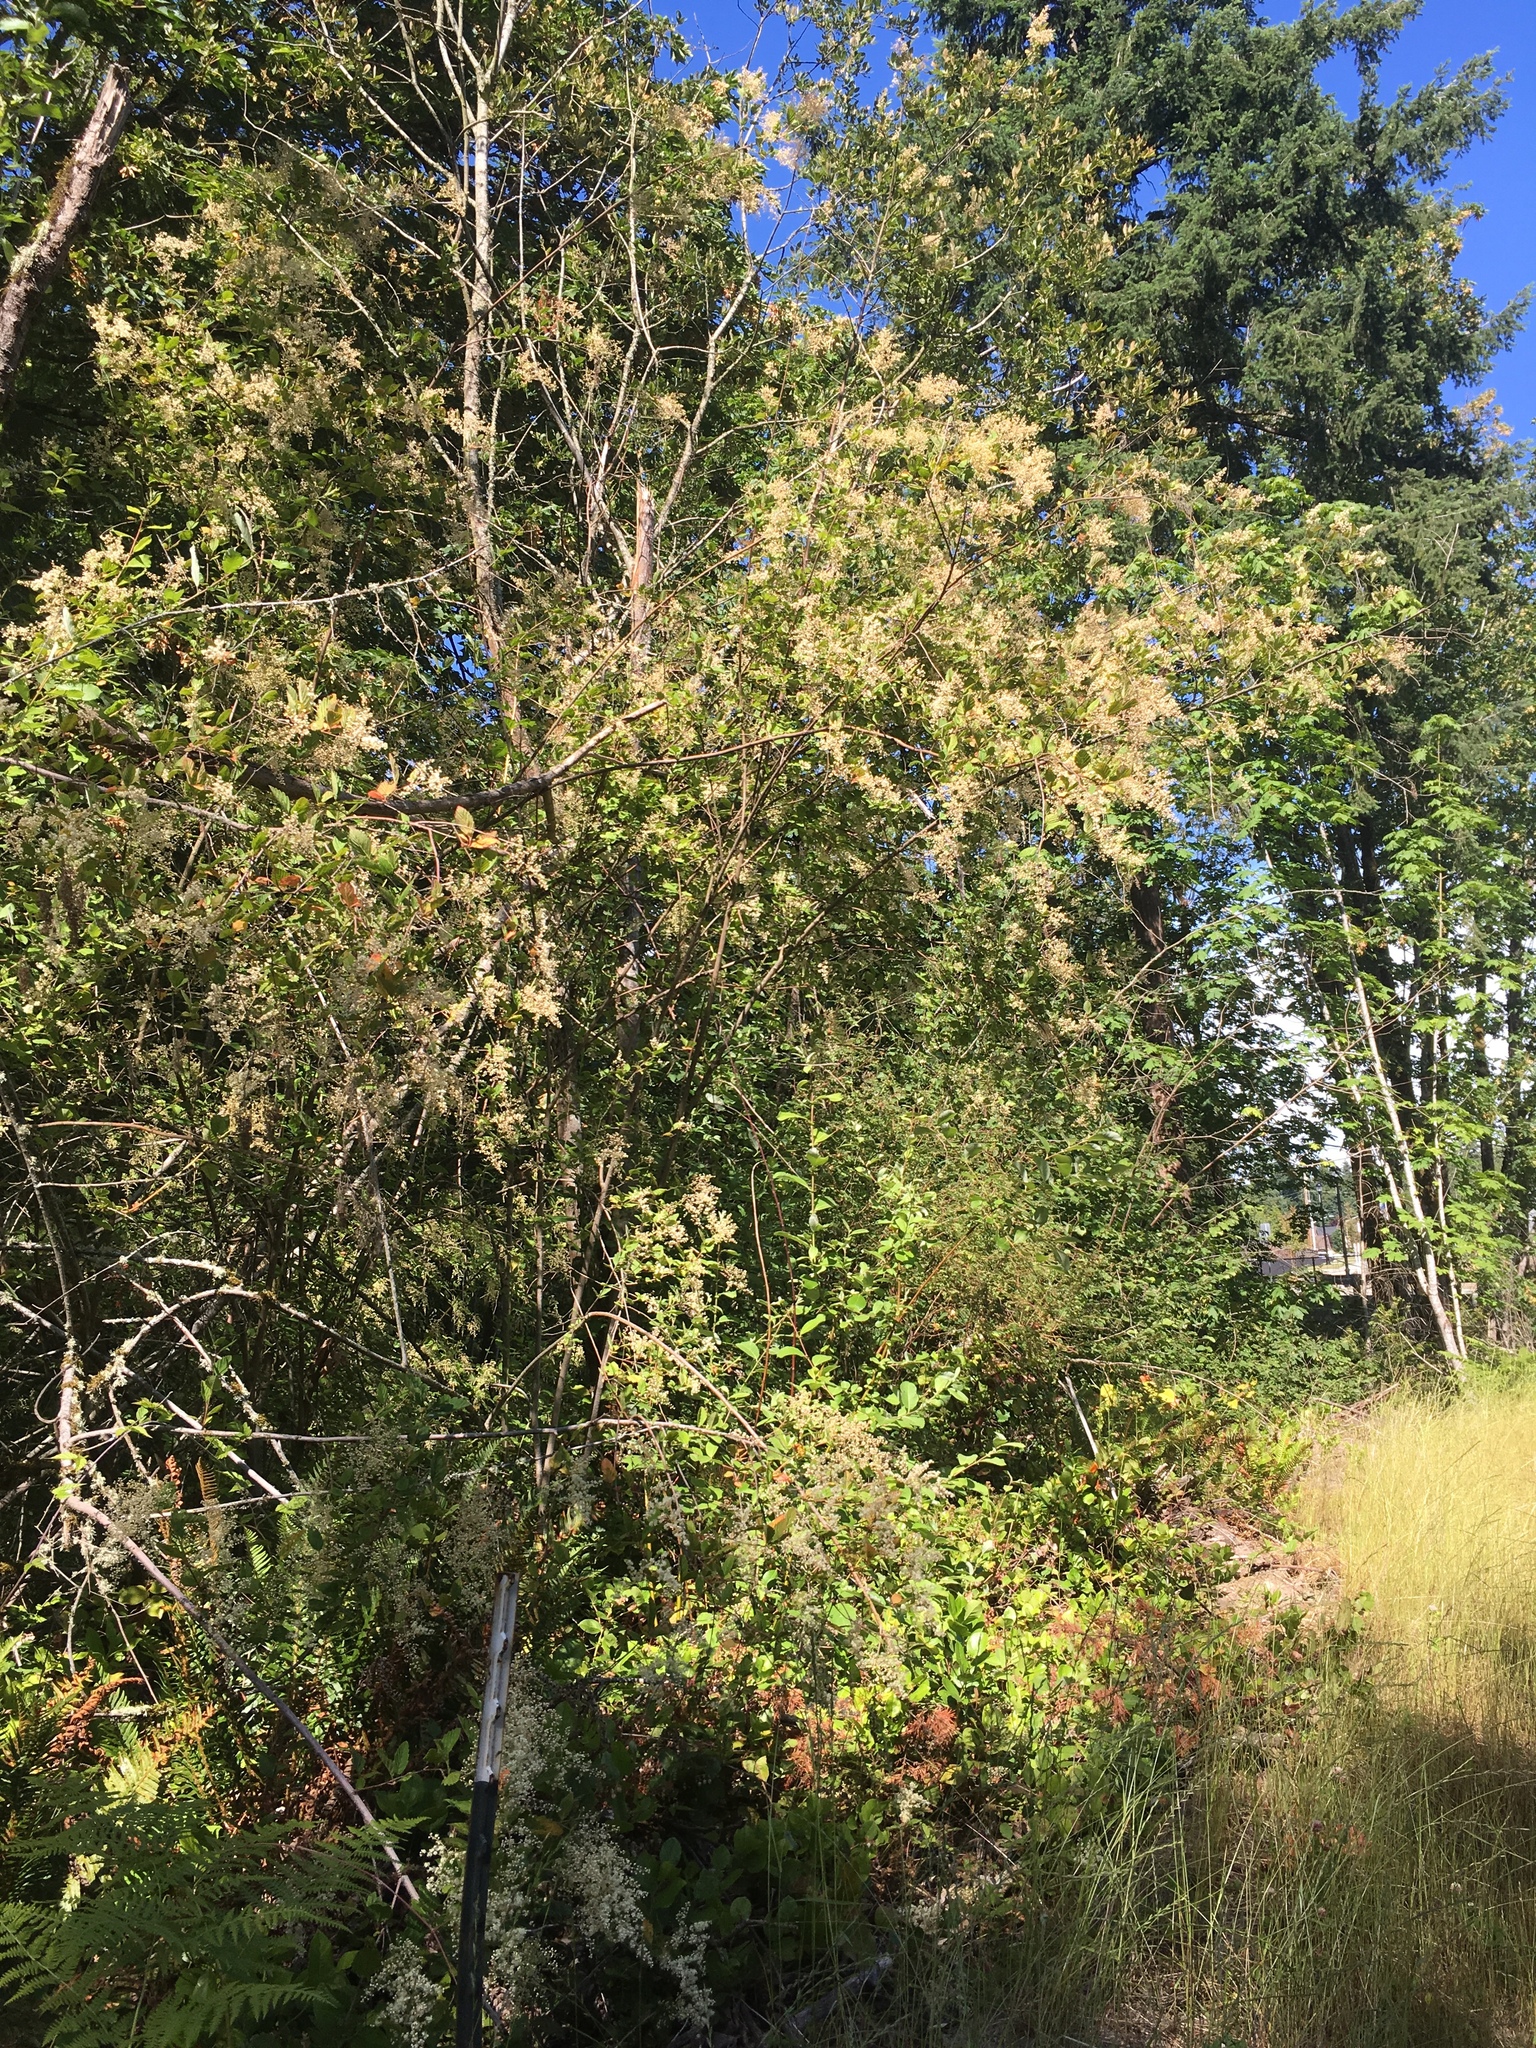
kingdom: Plantae
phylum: Tracheophyta
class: Magnoliopsida
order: Rosales
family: Rosaceae
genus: Holodiscus
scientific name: Holodiscus discolor
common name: Oceanspray
